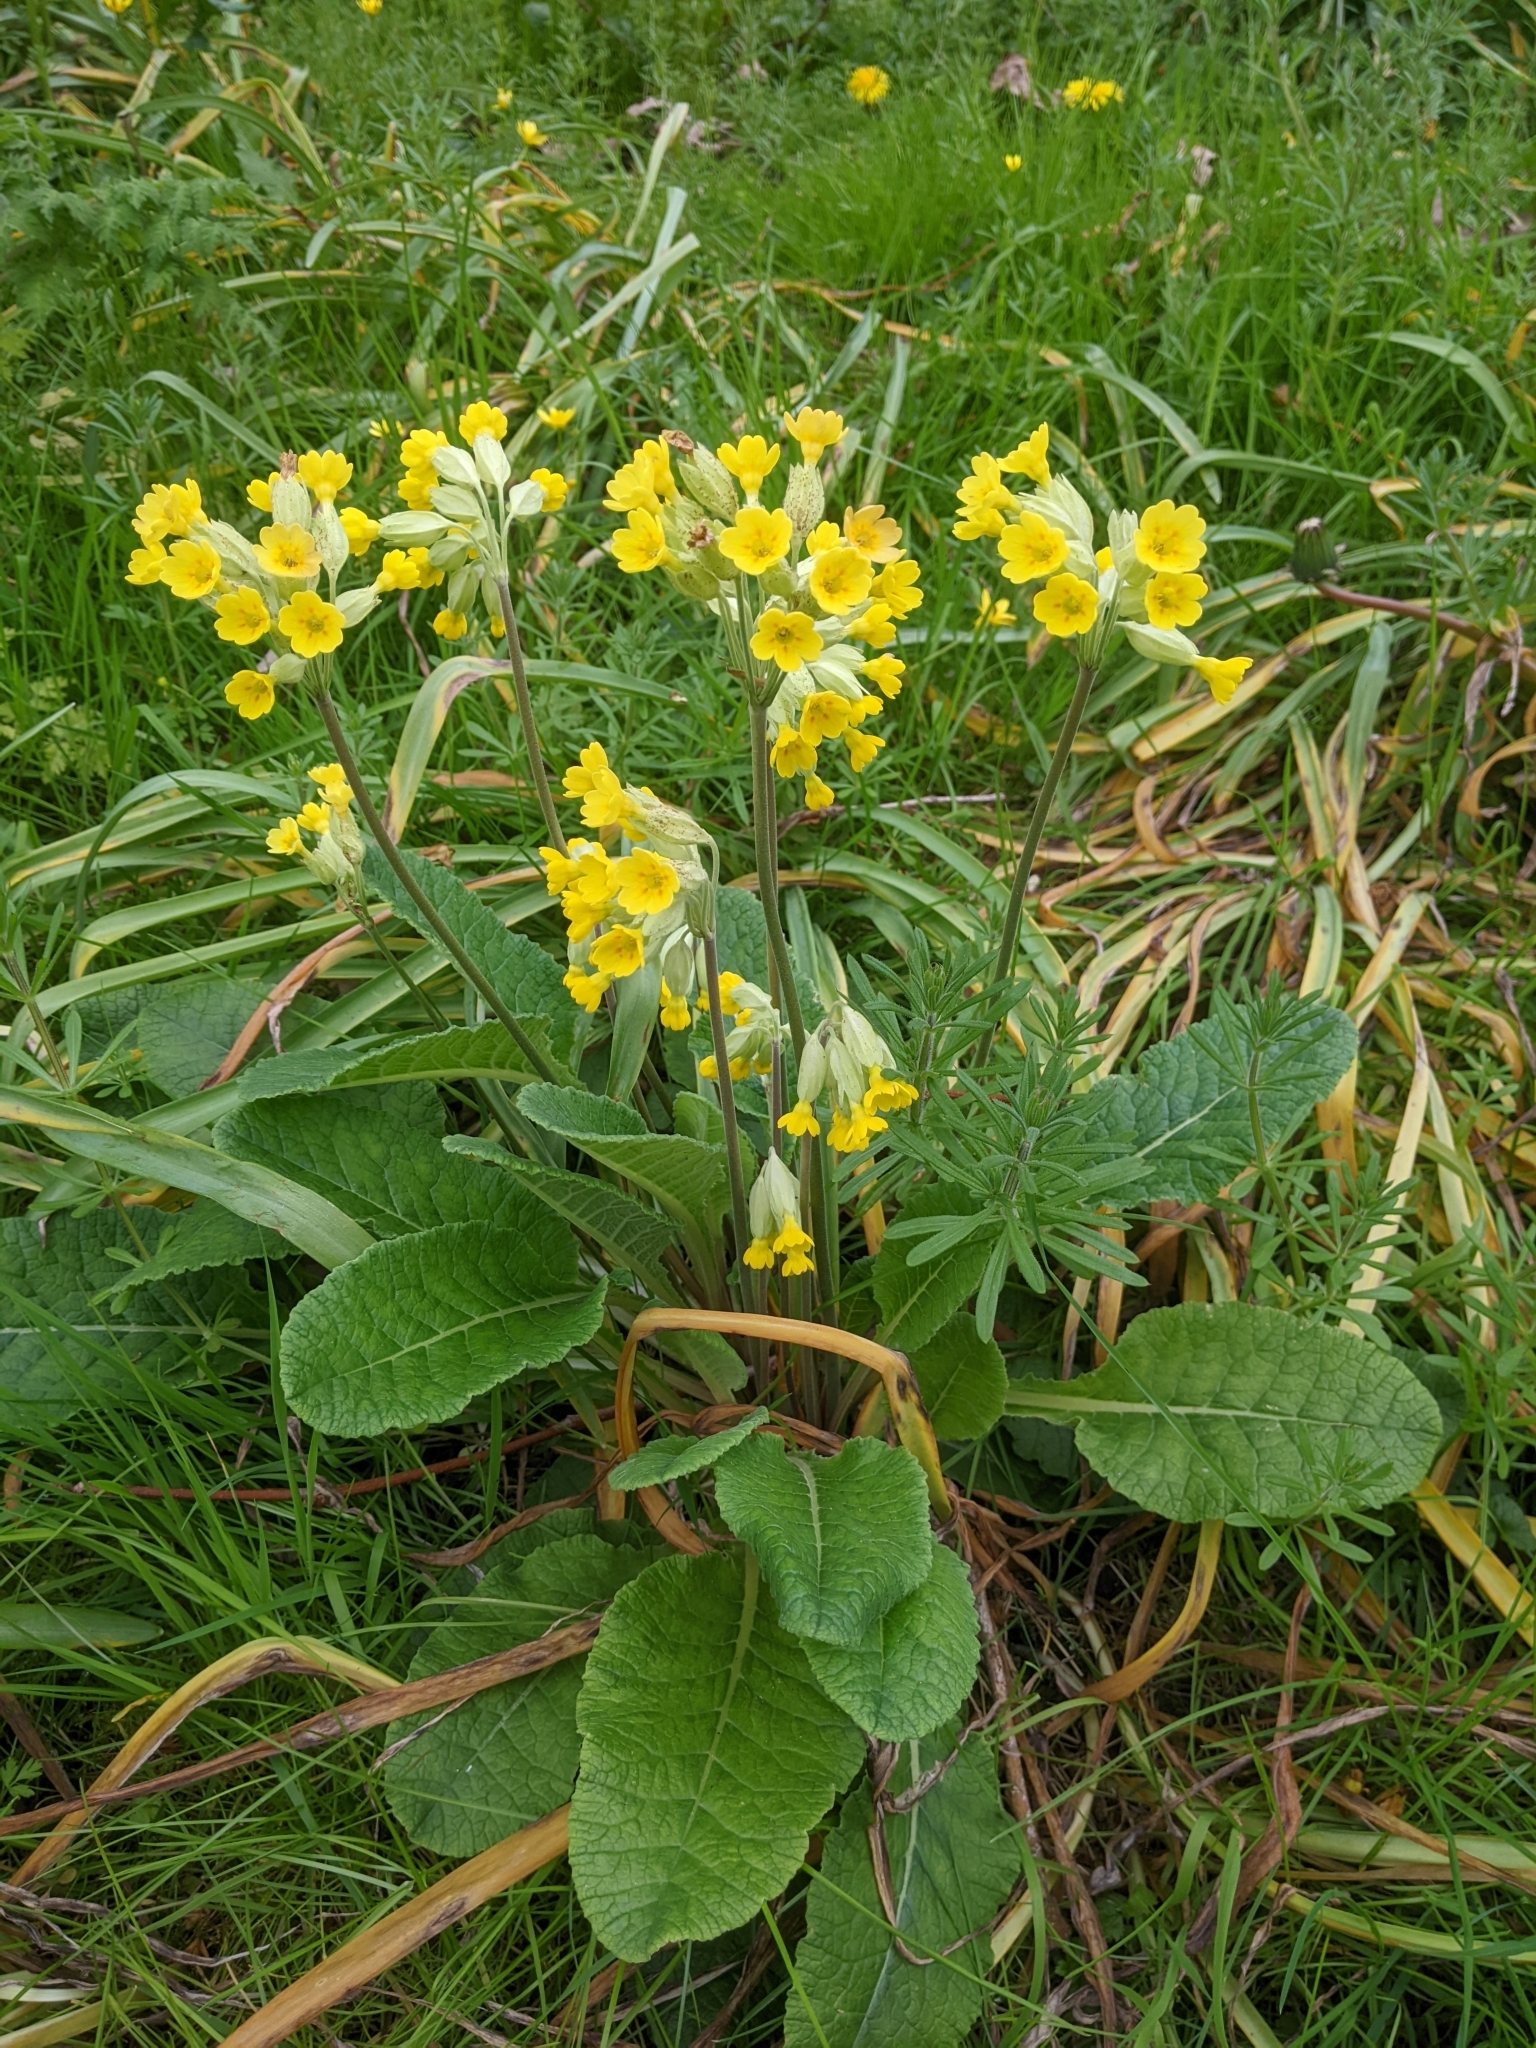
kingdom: Plantae
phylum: Tracheophyta
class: Magnoliopsida
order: Ericales
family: Primulaceae
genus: Primula
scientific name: Primula veris
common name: Cowslip
